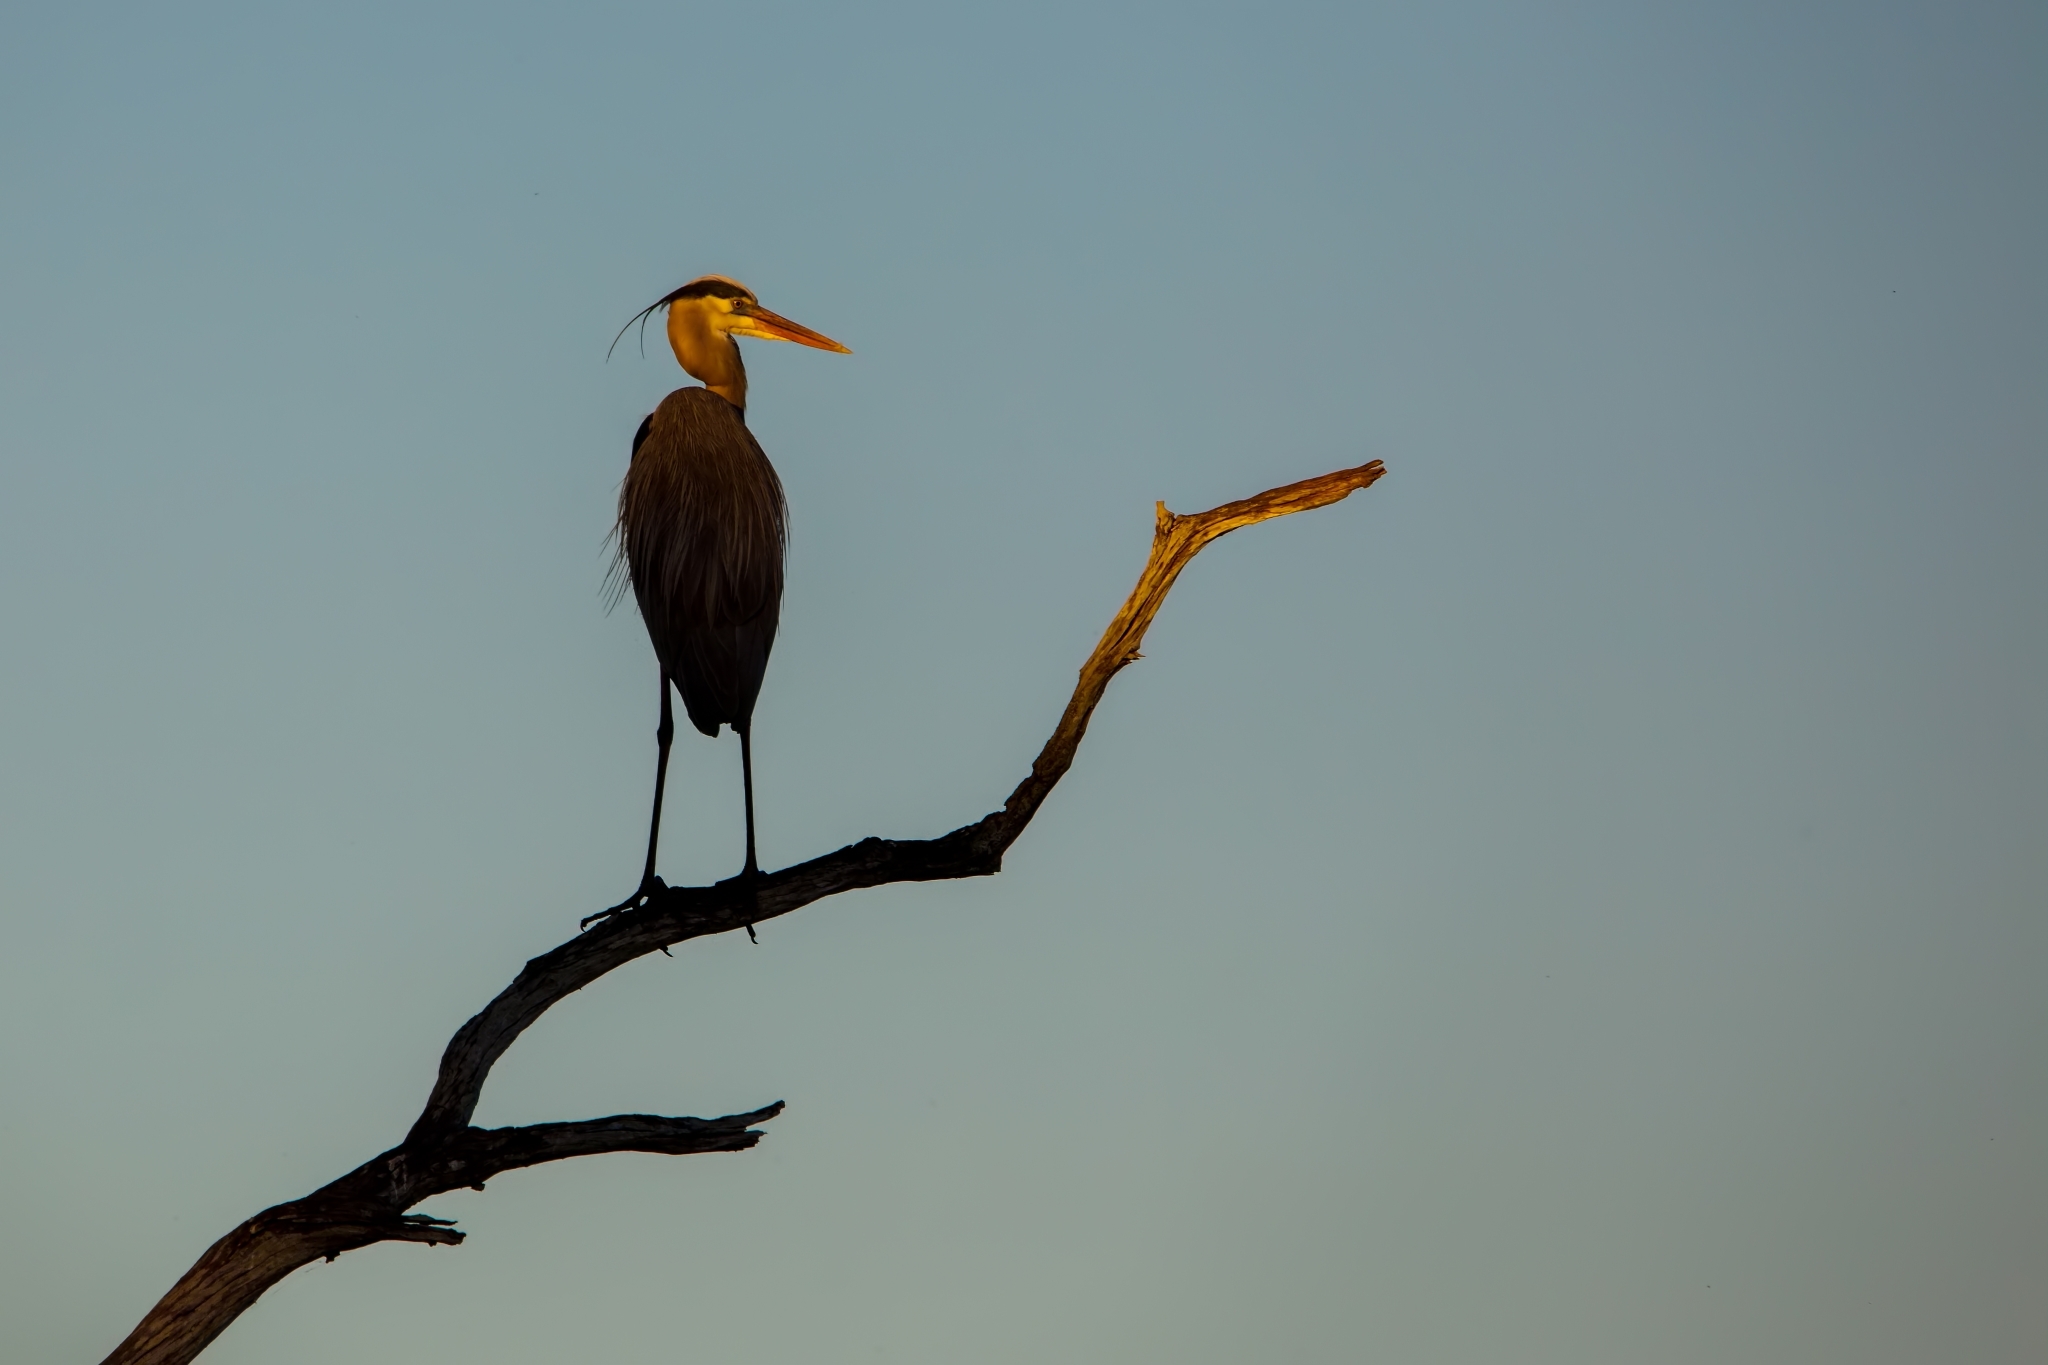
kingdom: Animalia
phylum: Chordata
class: Aves
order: Pelecaniformes
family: Ardeidae
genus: Ardea
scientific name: Ardea herodias
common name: Great blue heron
